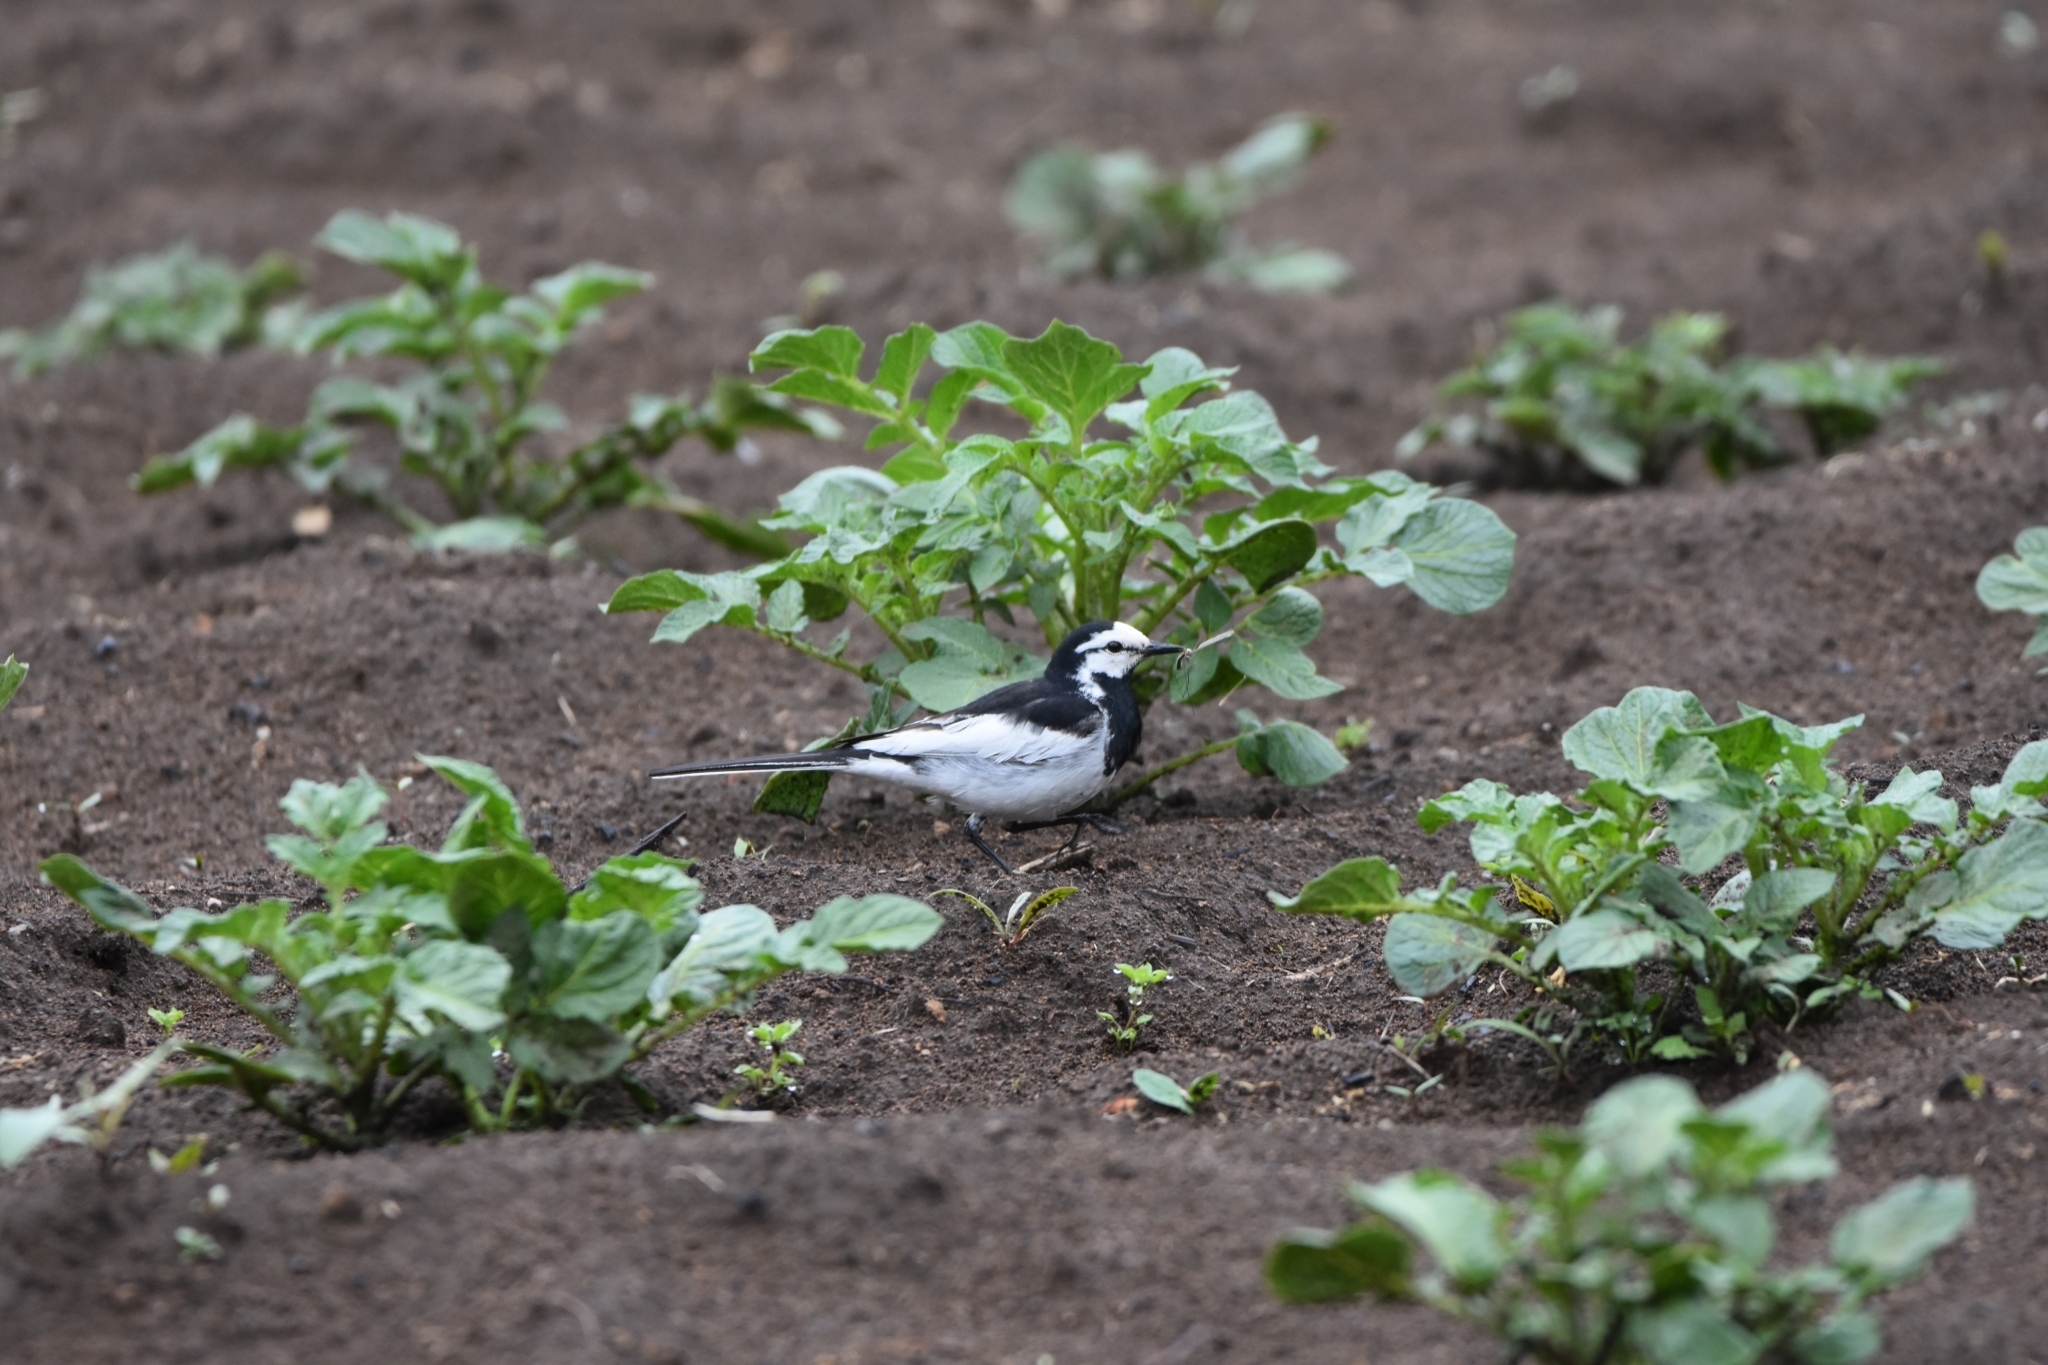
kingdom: Animalia
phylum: Chordata
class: Aves
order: Passeriformes
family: Motacillidae
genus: Motacilla
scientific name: Motacilla alba
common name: White wagtail
